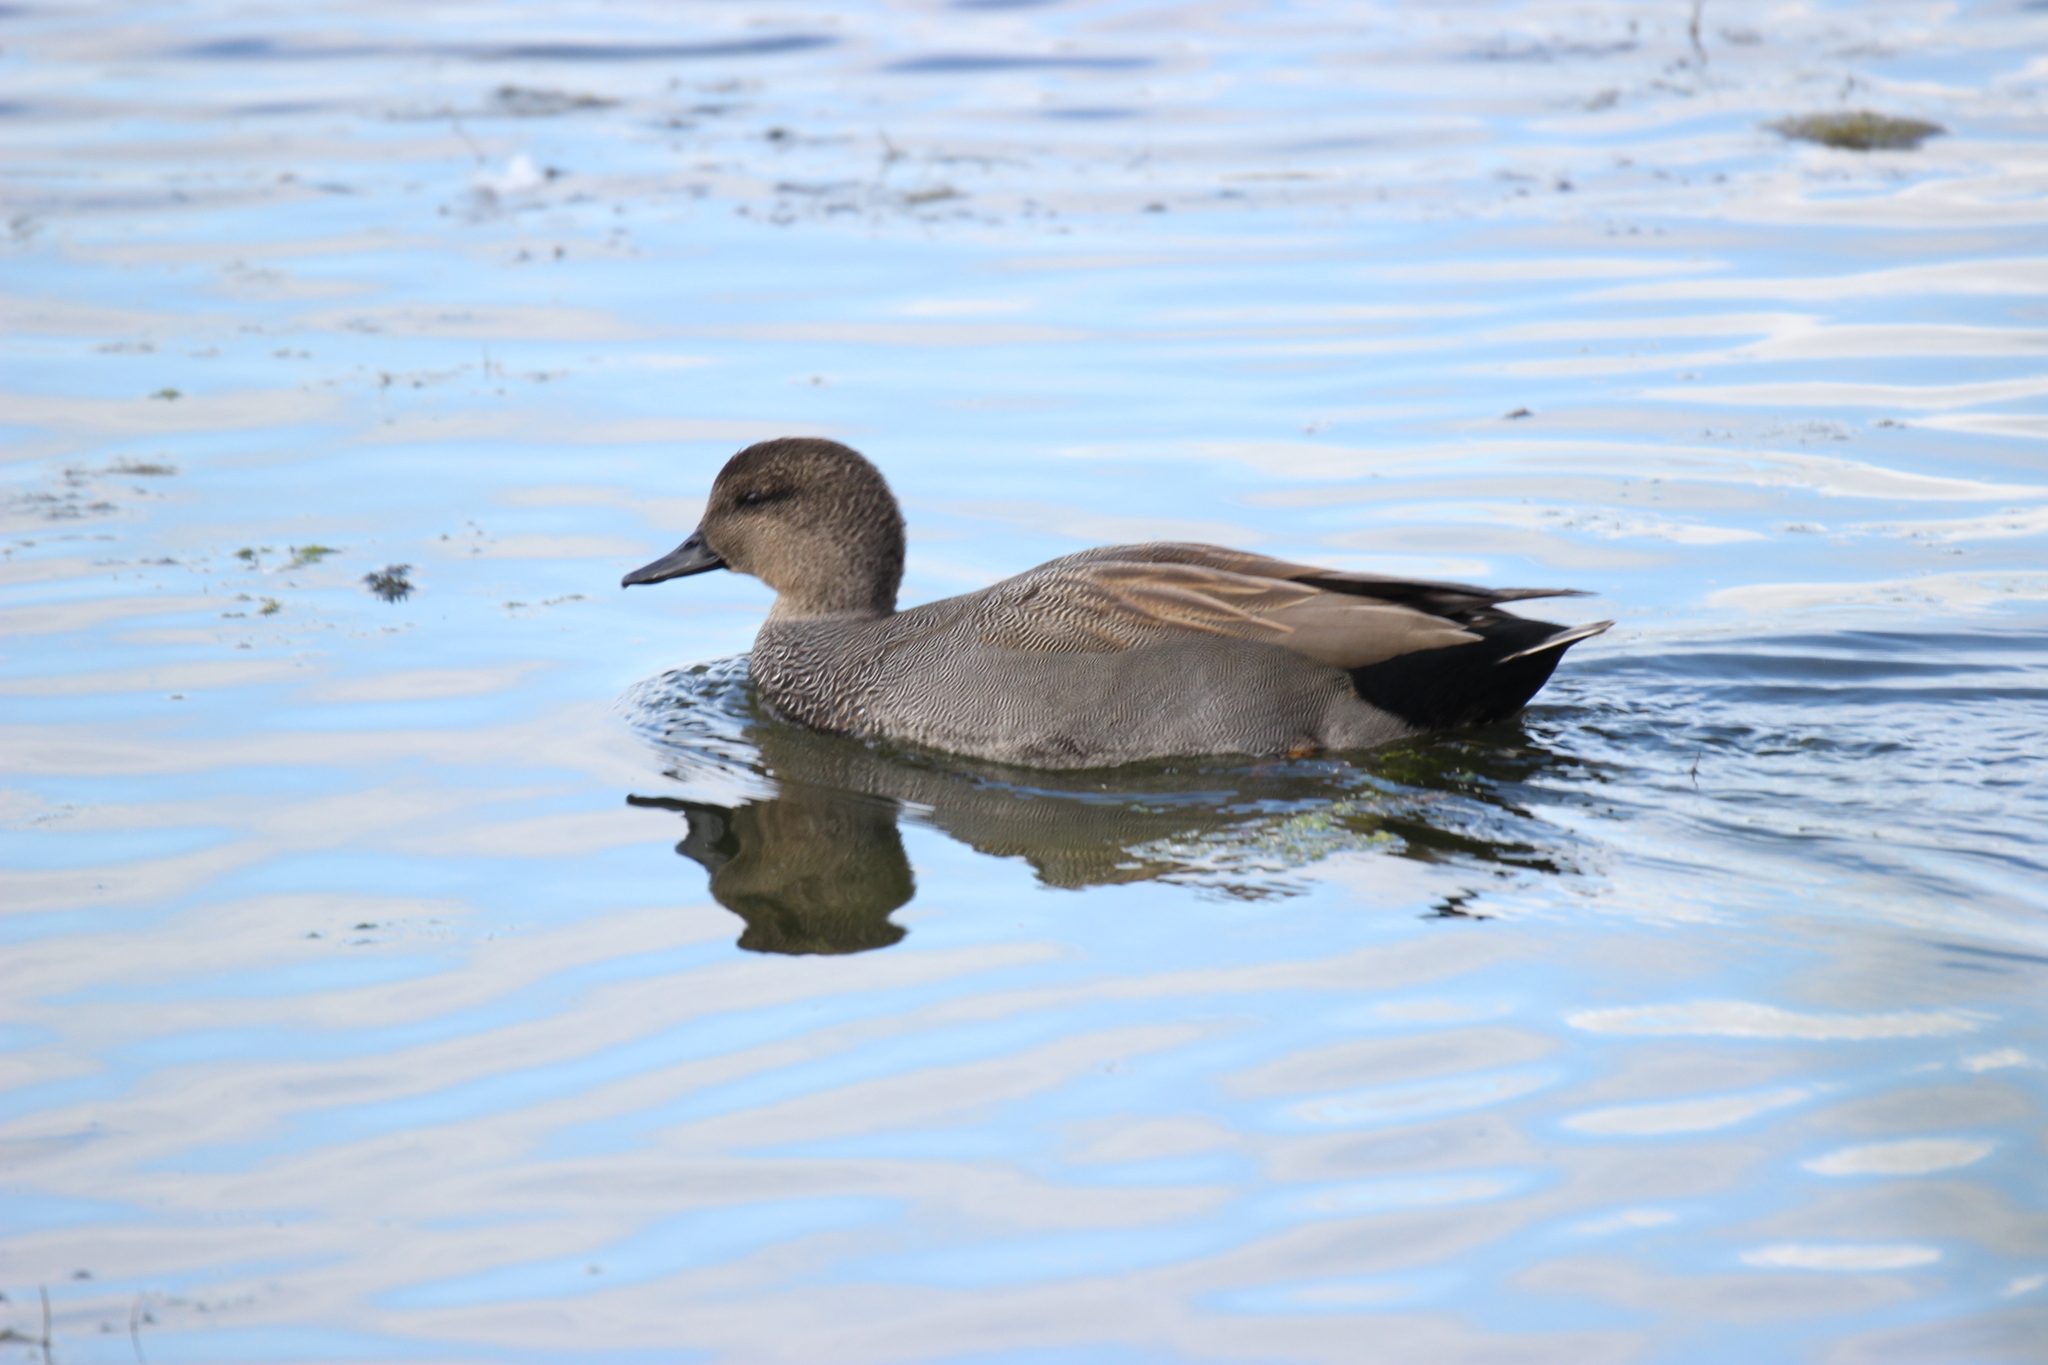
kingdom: Animalia
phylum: Chordata
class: Aves
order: Anseriformes
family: Anatidae
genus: Mareca
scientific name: Mareca strepera
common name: Gadwall
